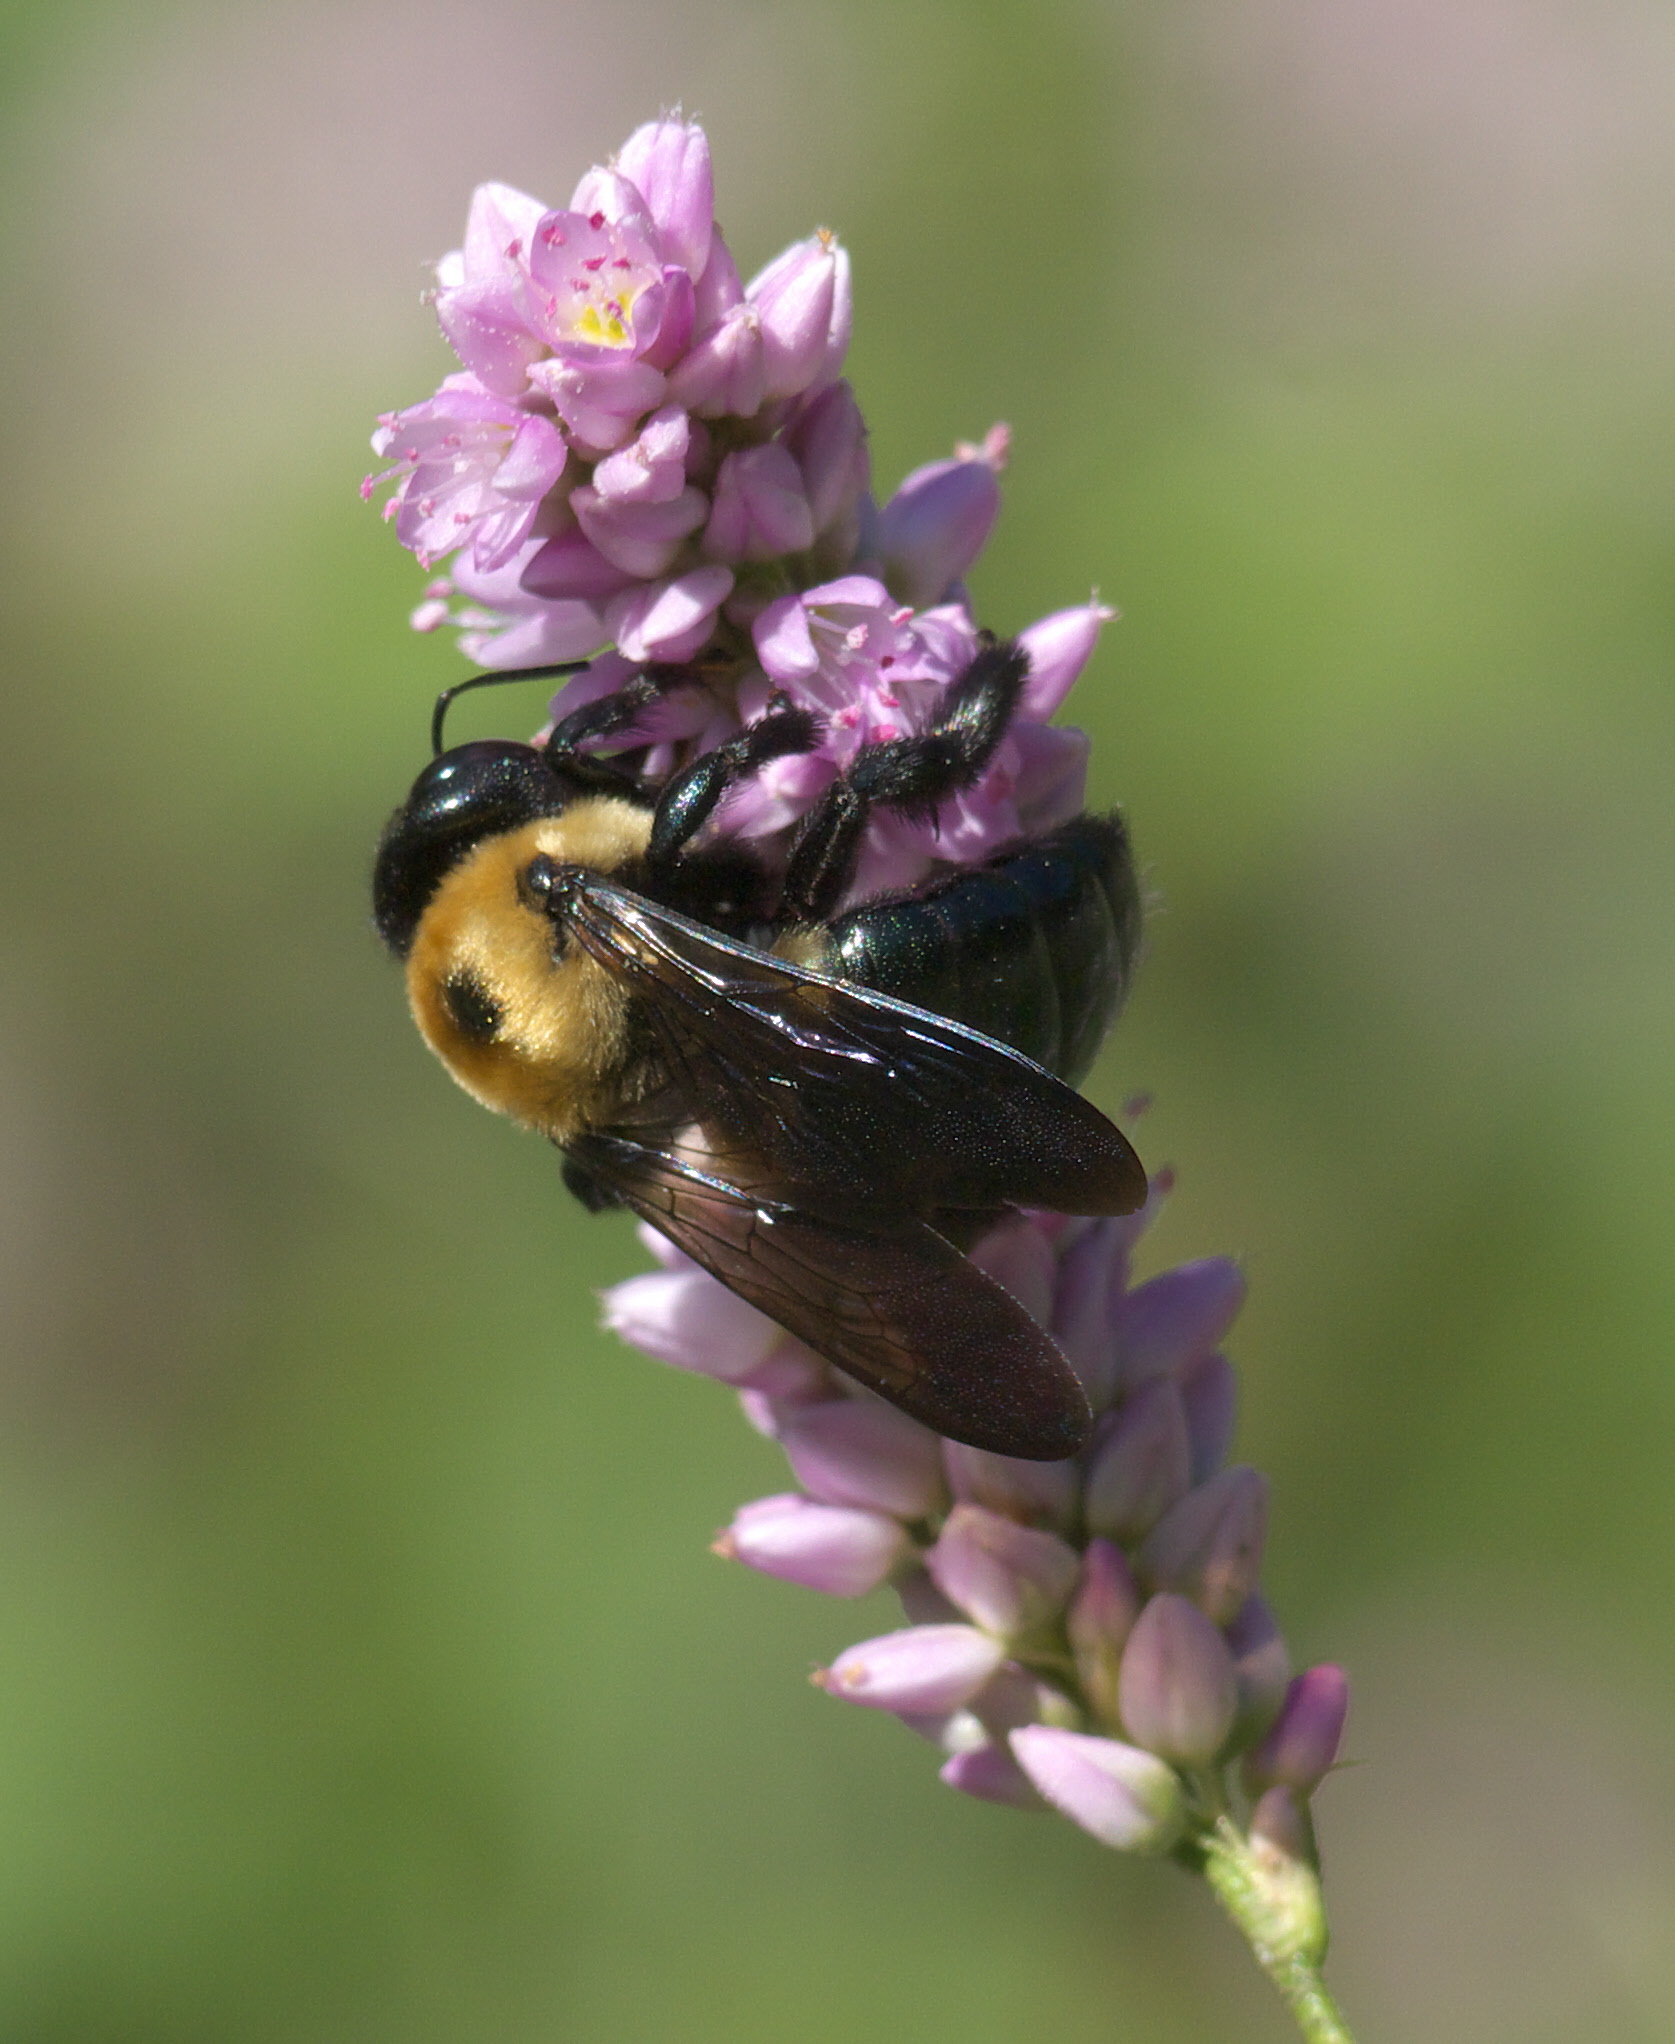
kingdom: Animalia
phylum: Arthropoda
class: Insecta
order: Hymenoptera
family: Apidae
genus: Xylocopa
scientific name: Xylocopa virginica
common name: Carpenter bee
